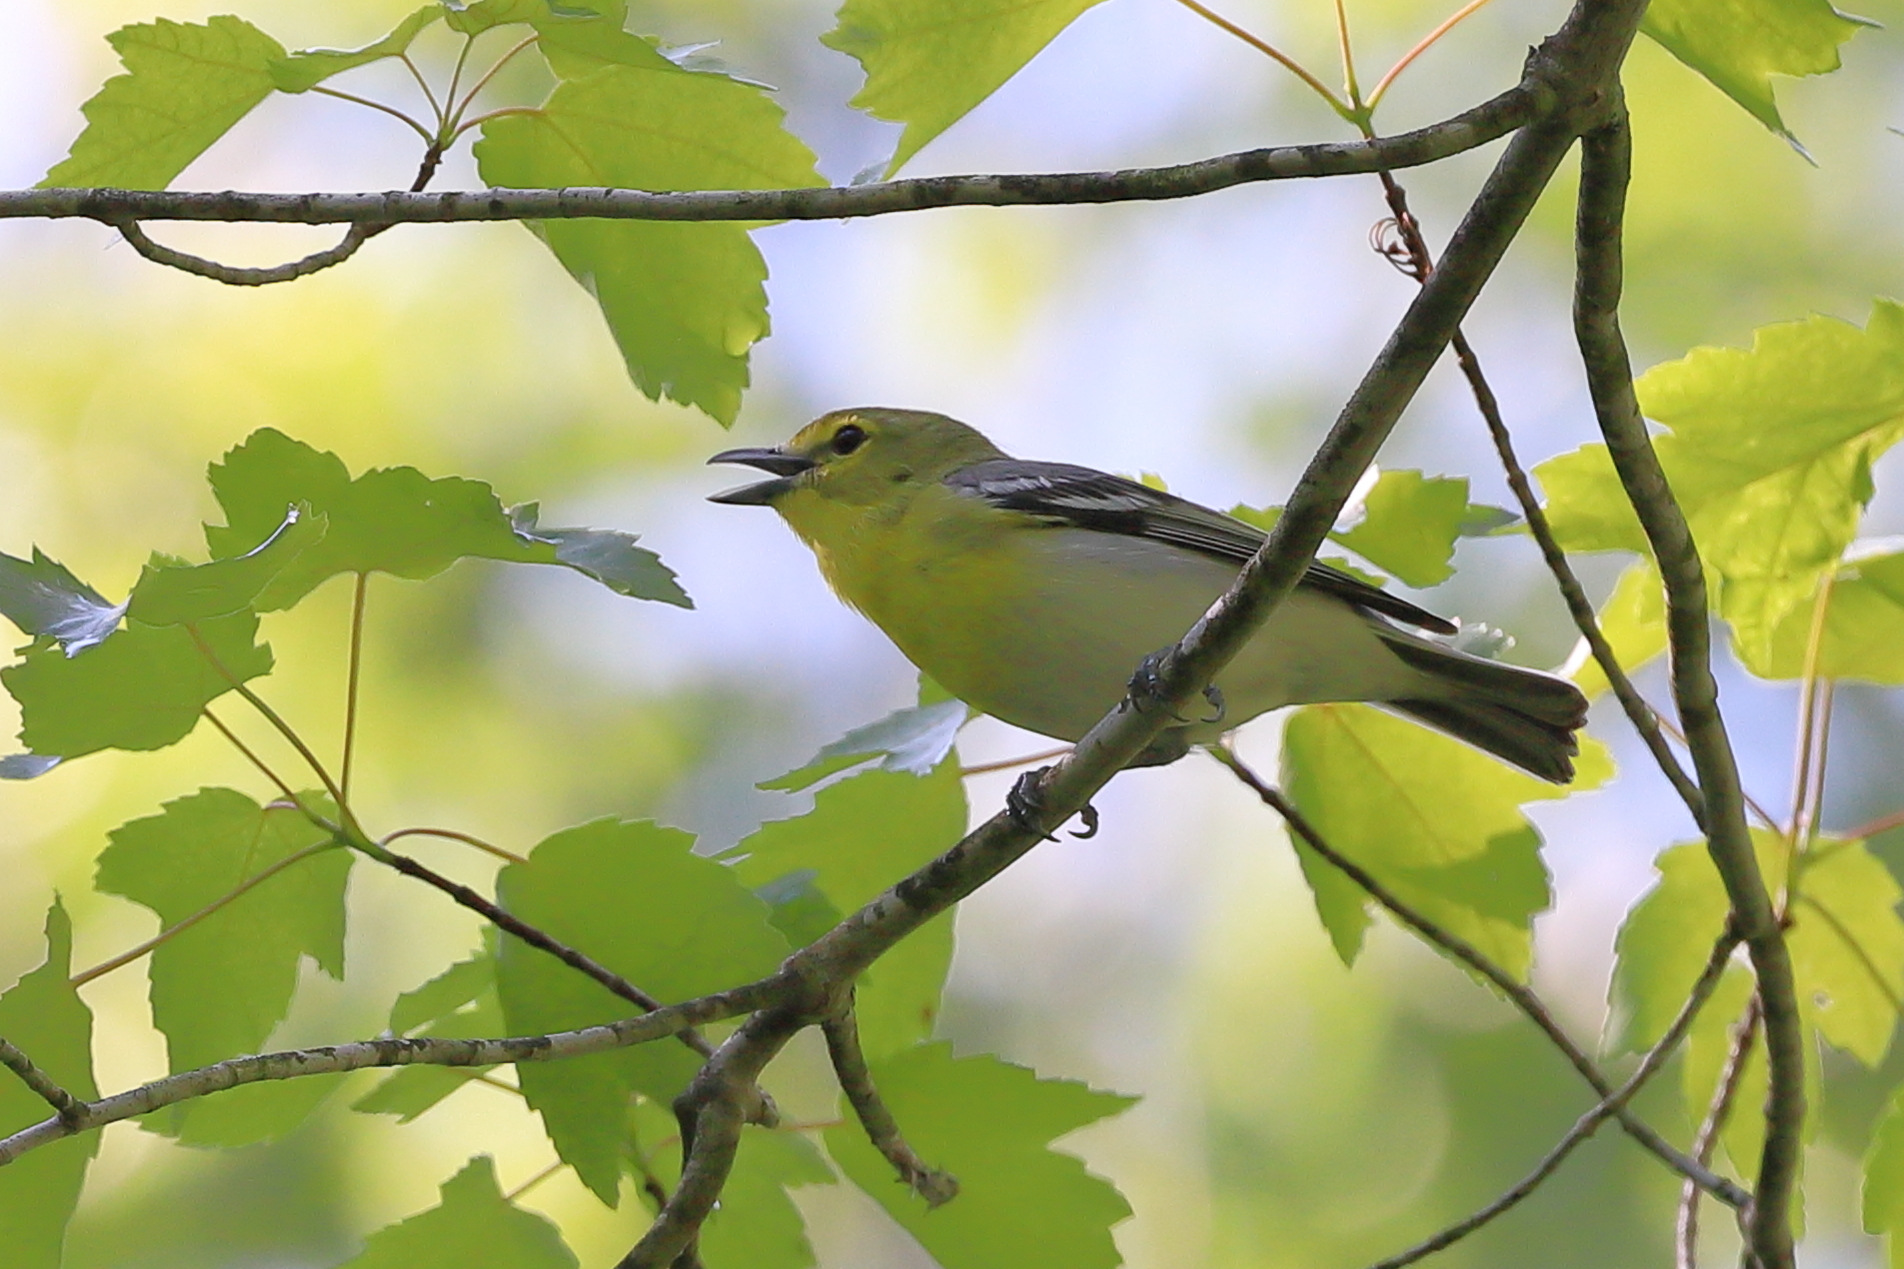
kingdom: Animalia
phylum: Chordata
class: Aves
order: Passeriformes
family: Vireonidae
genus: Vireo
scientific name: Vireo flavifrons
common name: Yellow-throated vireo
